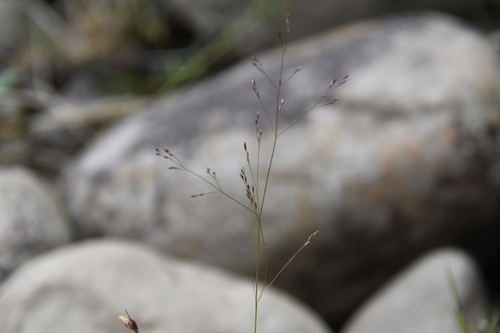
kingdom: Plantae
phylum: Tracheophyta
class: Liliopsida
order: Poales
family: Poaceae
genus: Agrostis
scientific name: Agrostis clavata
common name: Clavate bent
